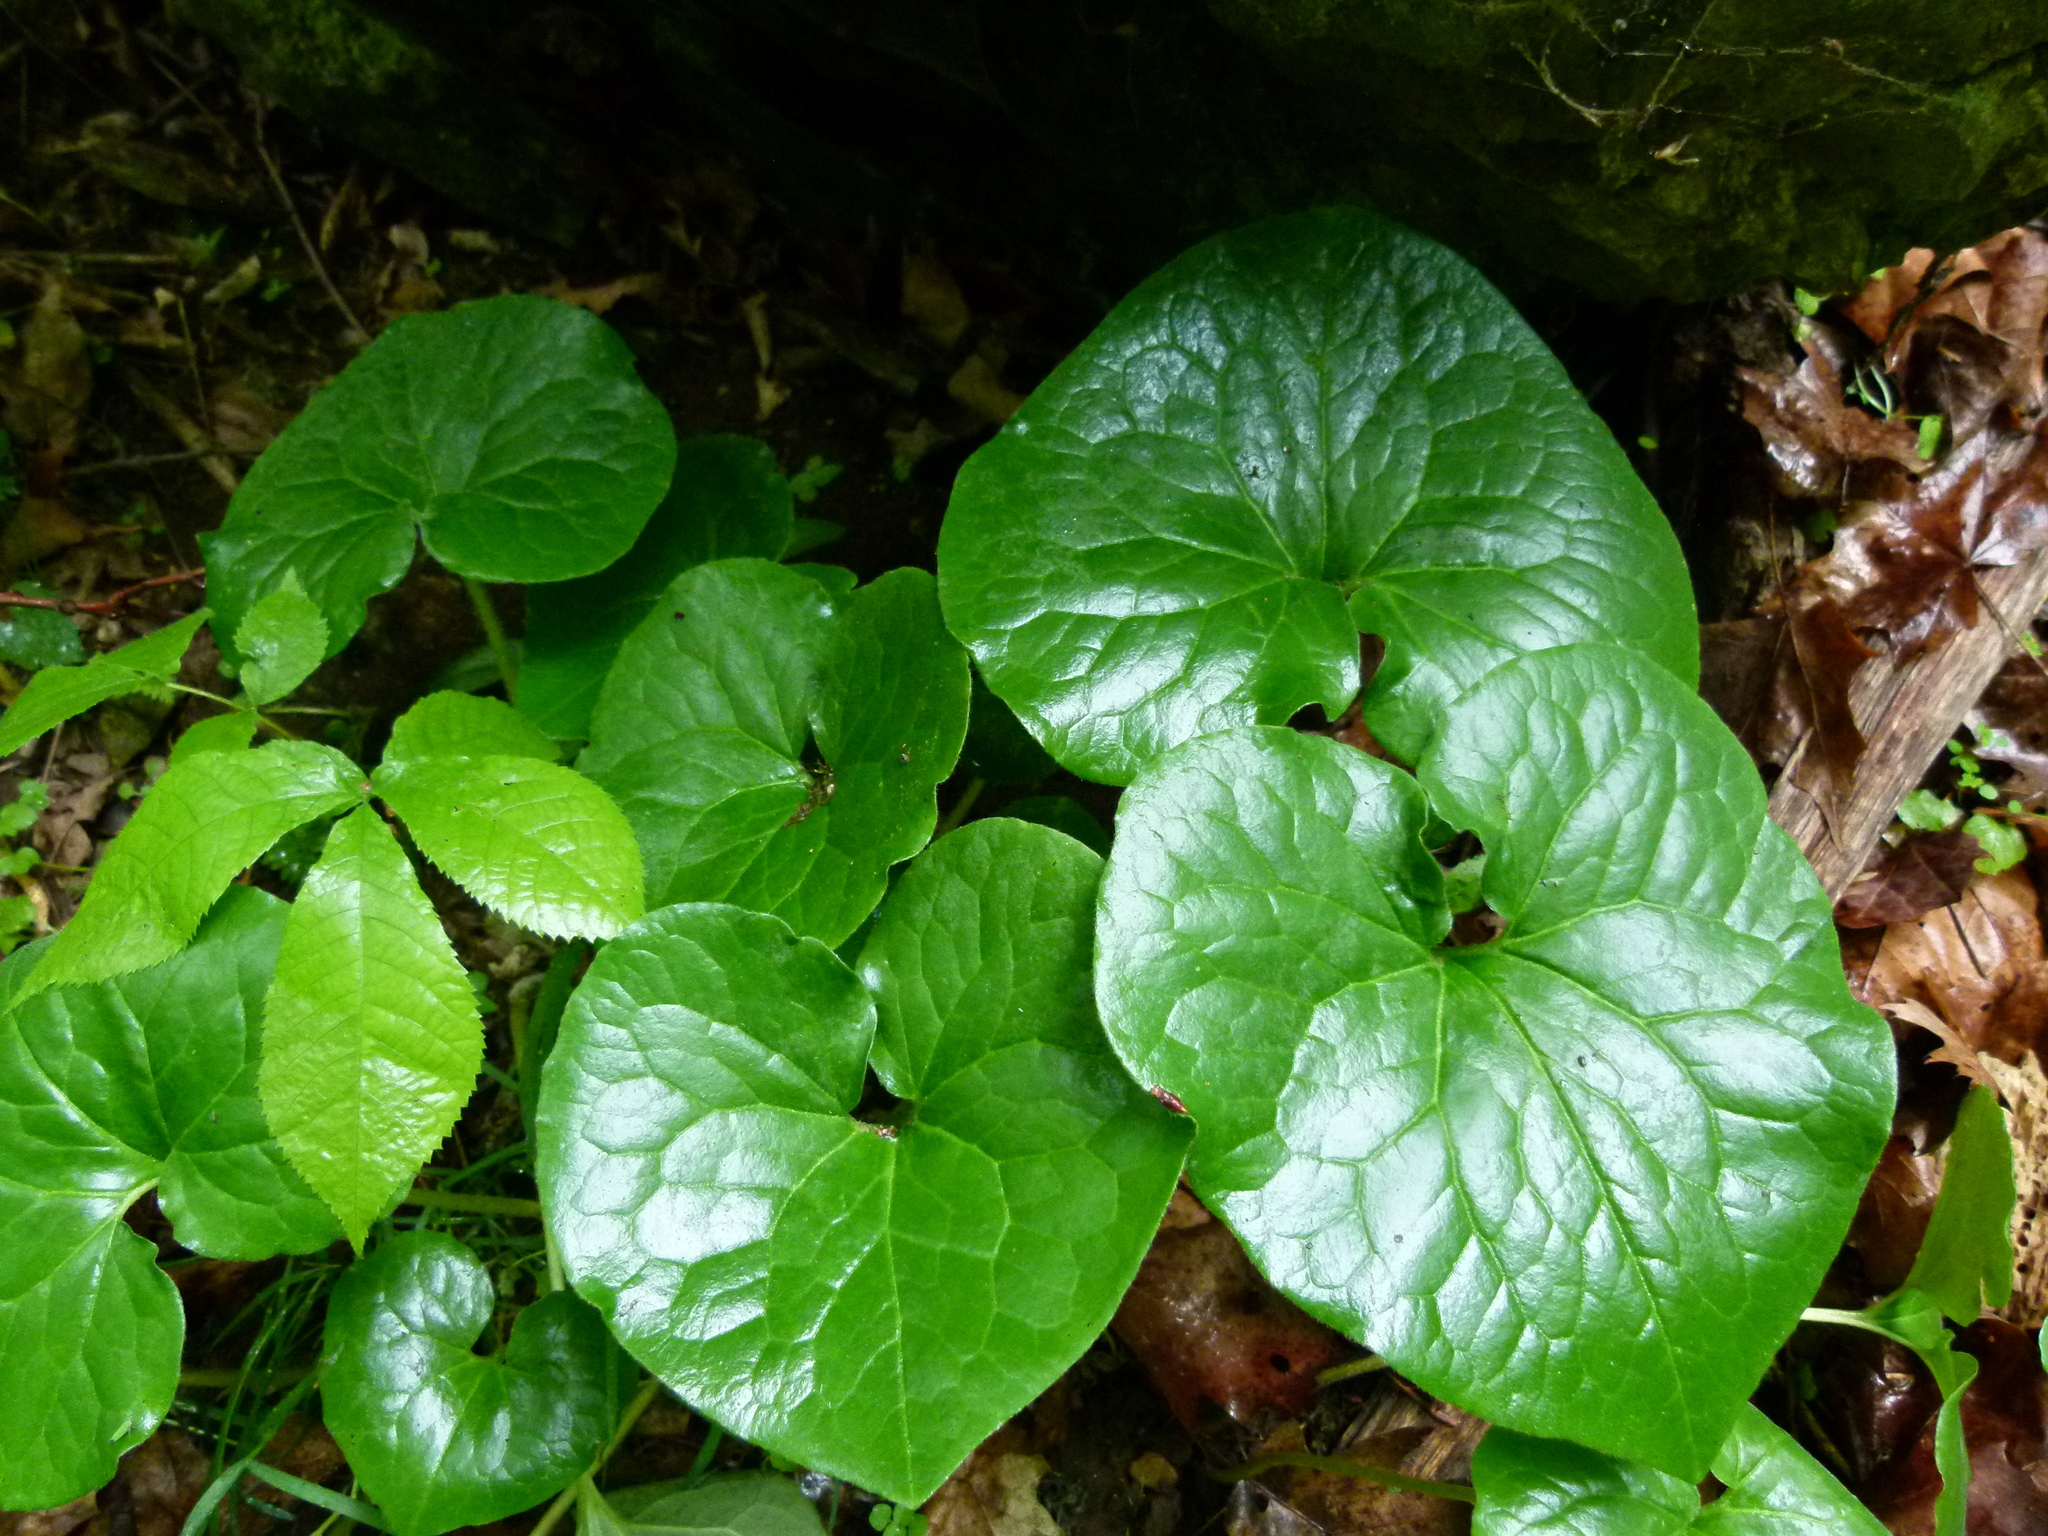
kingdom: Plantae
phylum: Tracheophyta
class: Magnoliopsida
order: Piperales
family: Aristolochiaceae
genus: Asarum
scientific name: Asarum canadense
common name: Wild ginger
